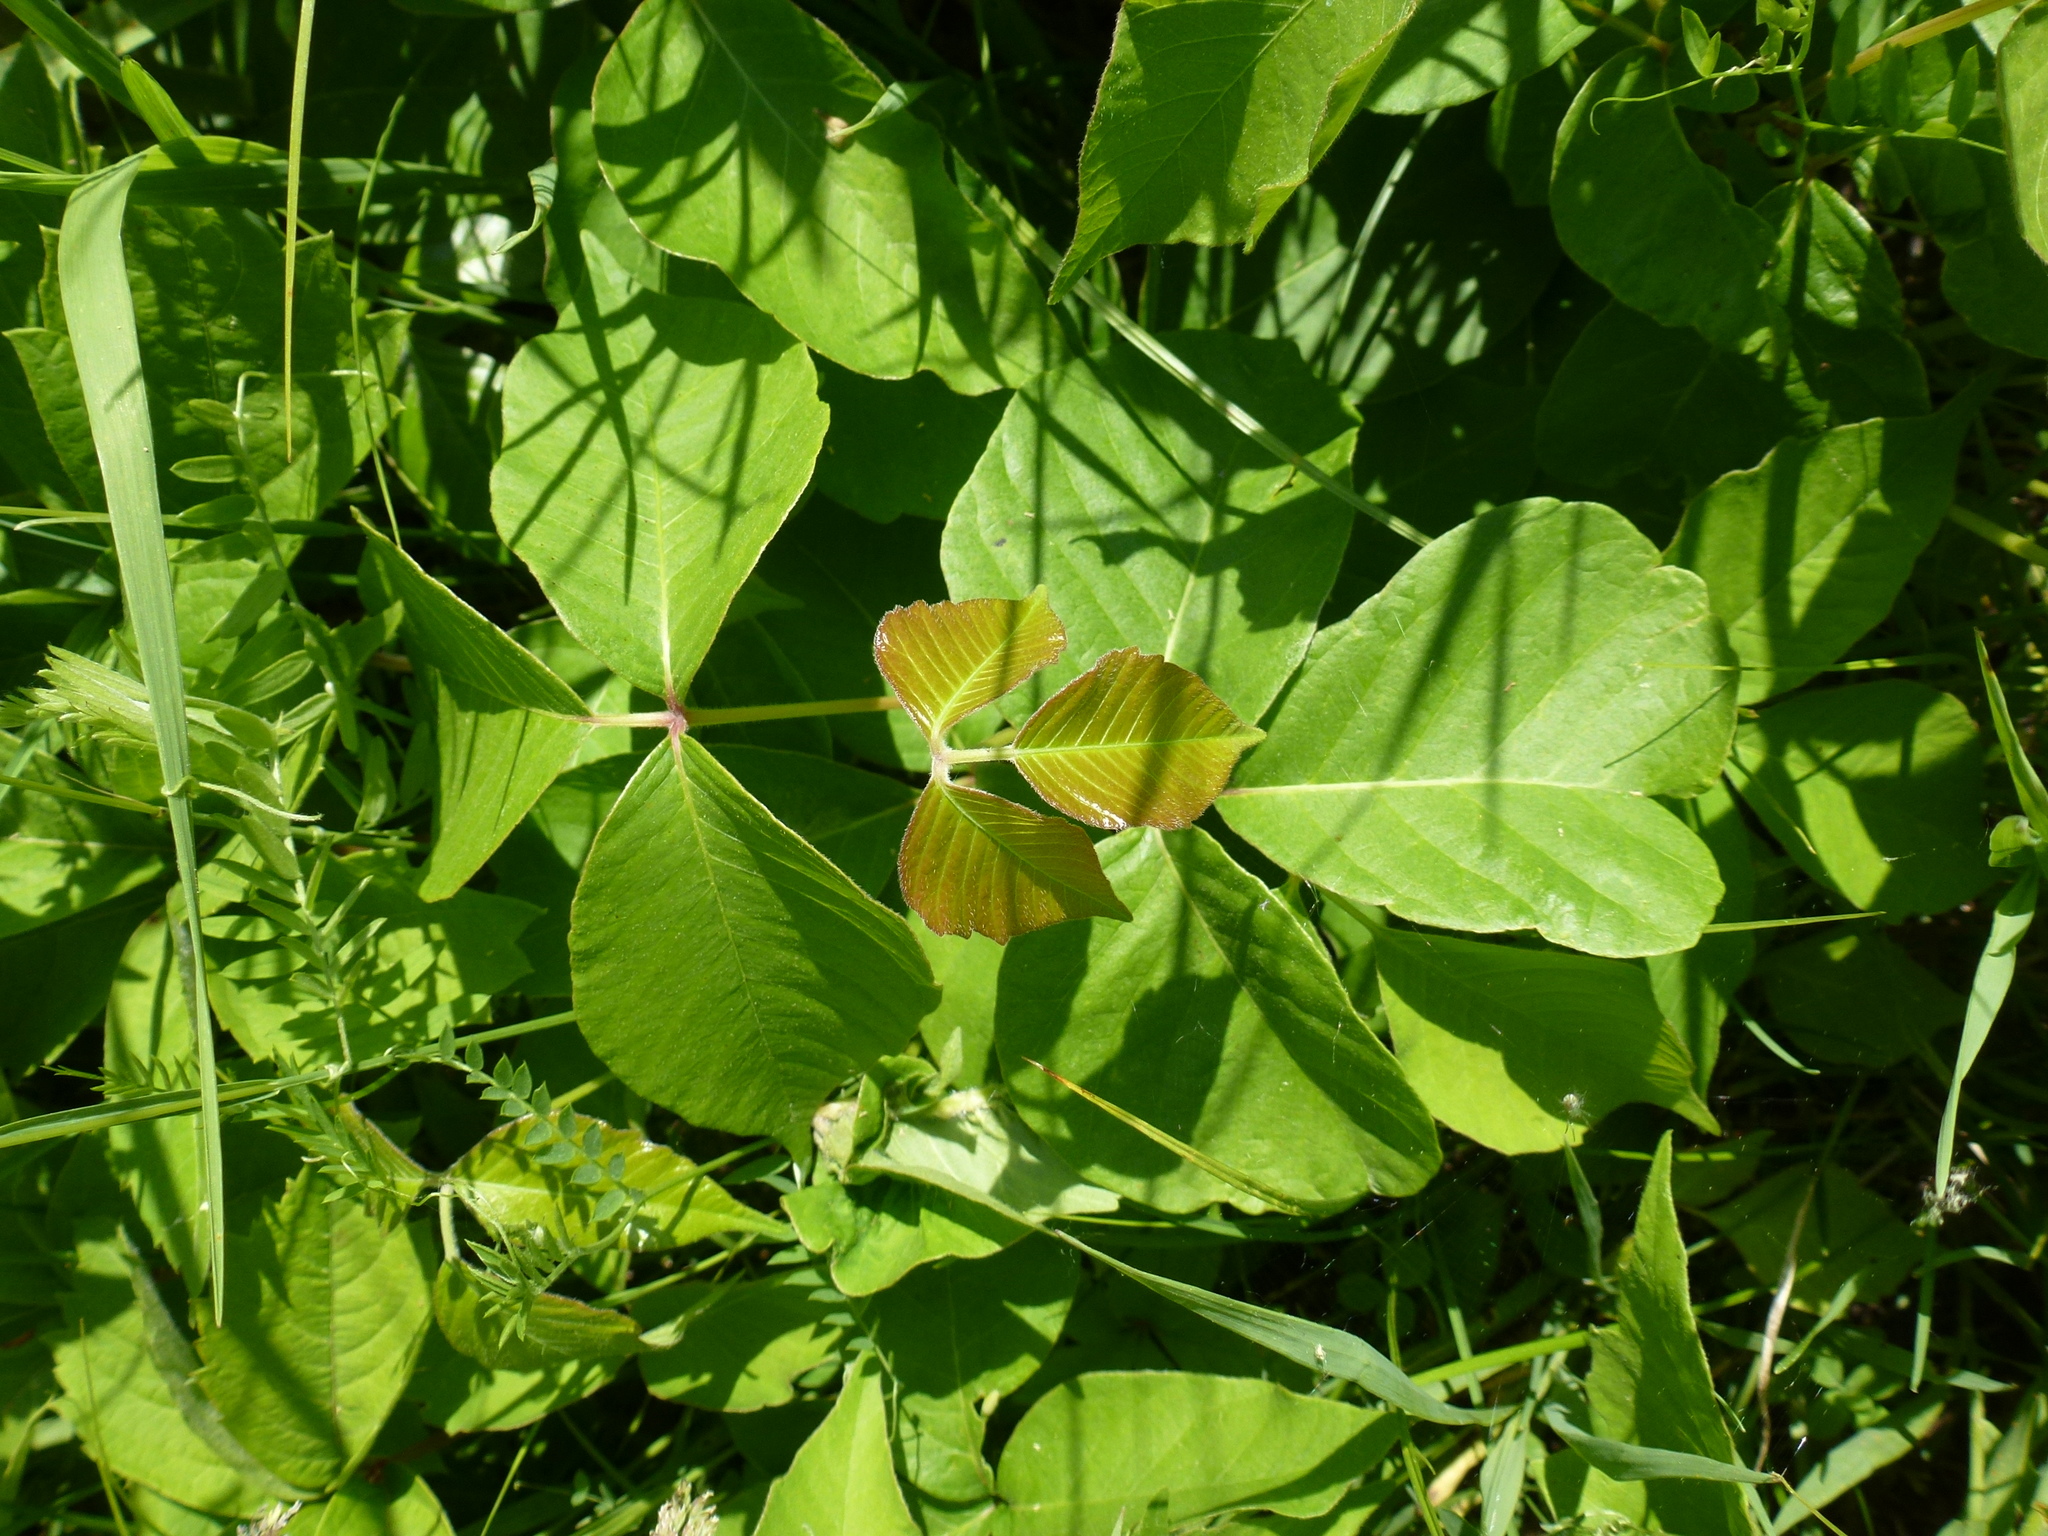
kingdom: Plantae
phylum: Tracheophyta
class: Magnoliopsida
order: Sapindales
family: Anacardiaceae
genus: Toxicodendron
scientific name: Toxicodendron rydbergii
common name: Rydberg's poison-ivy
